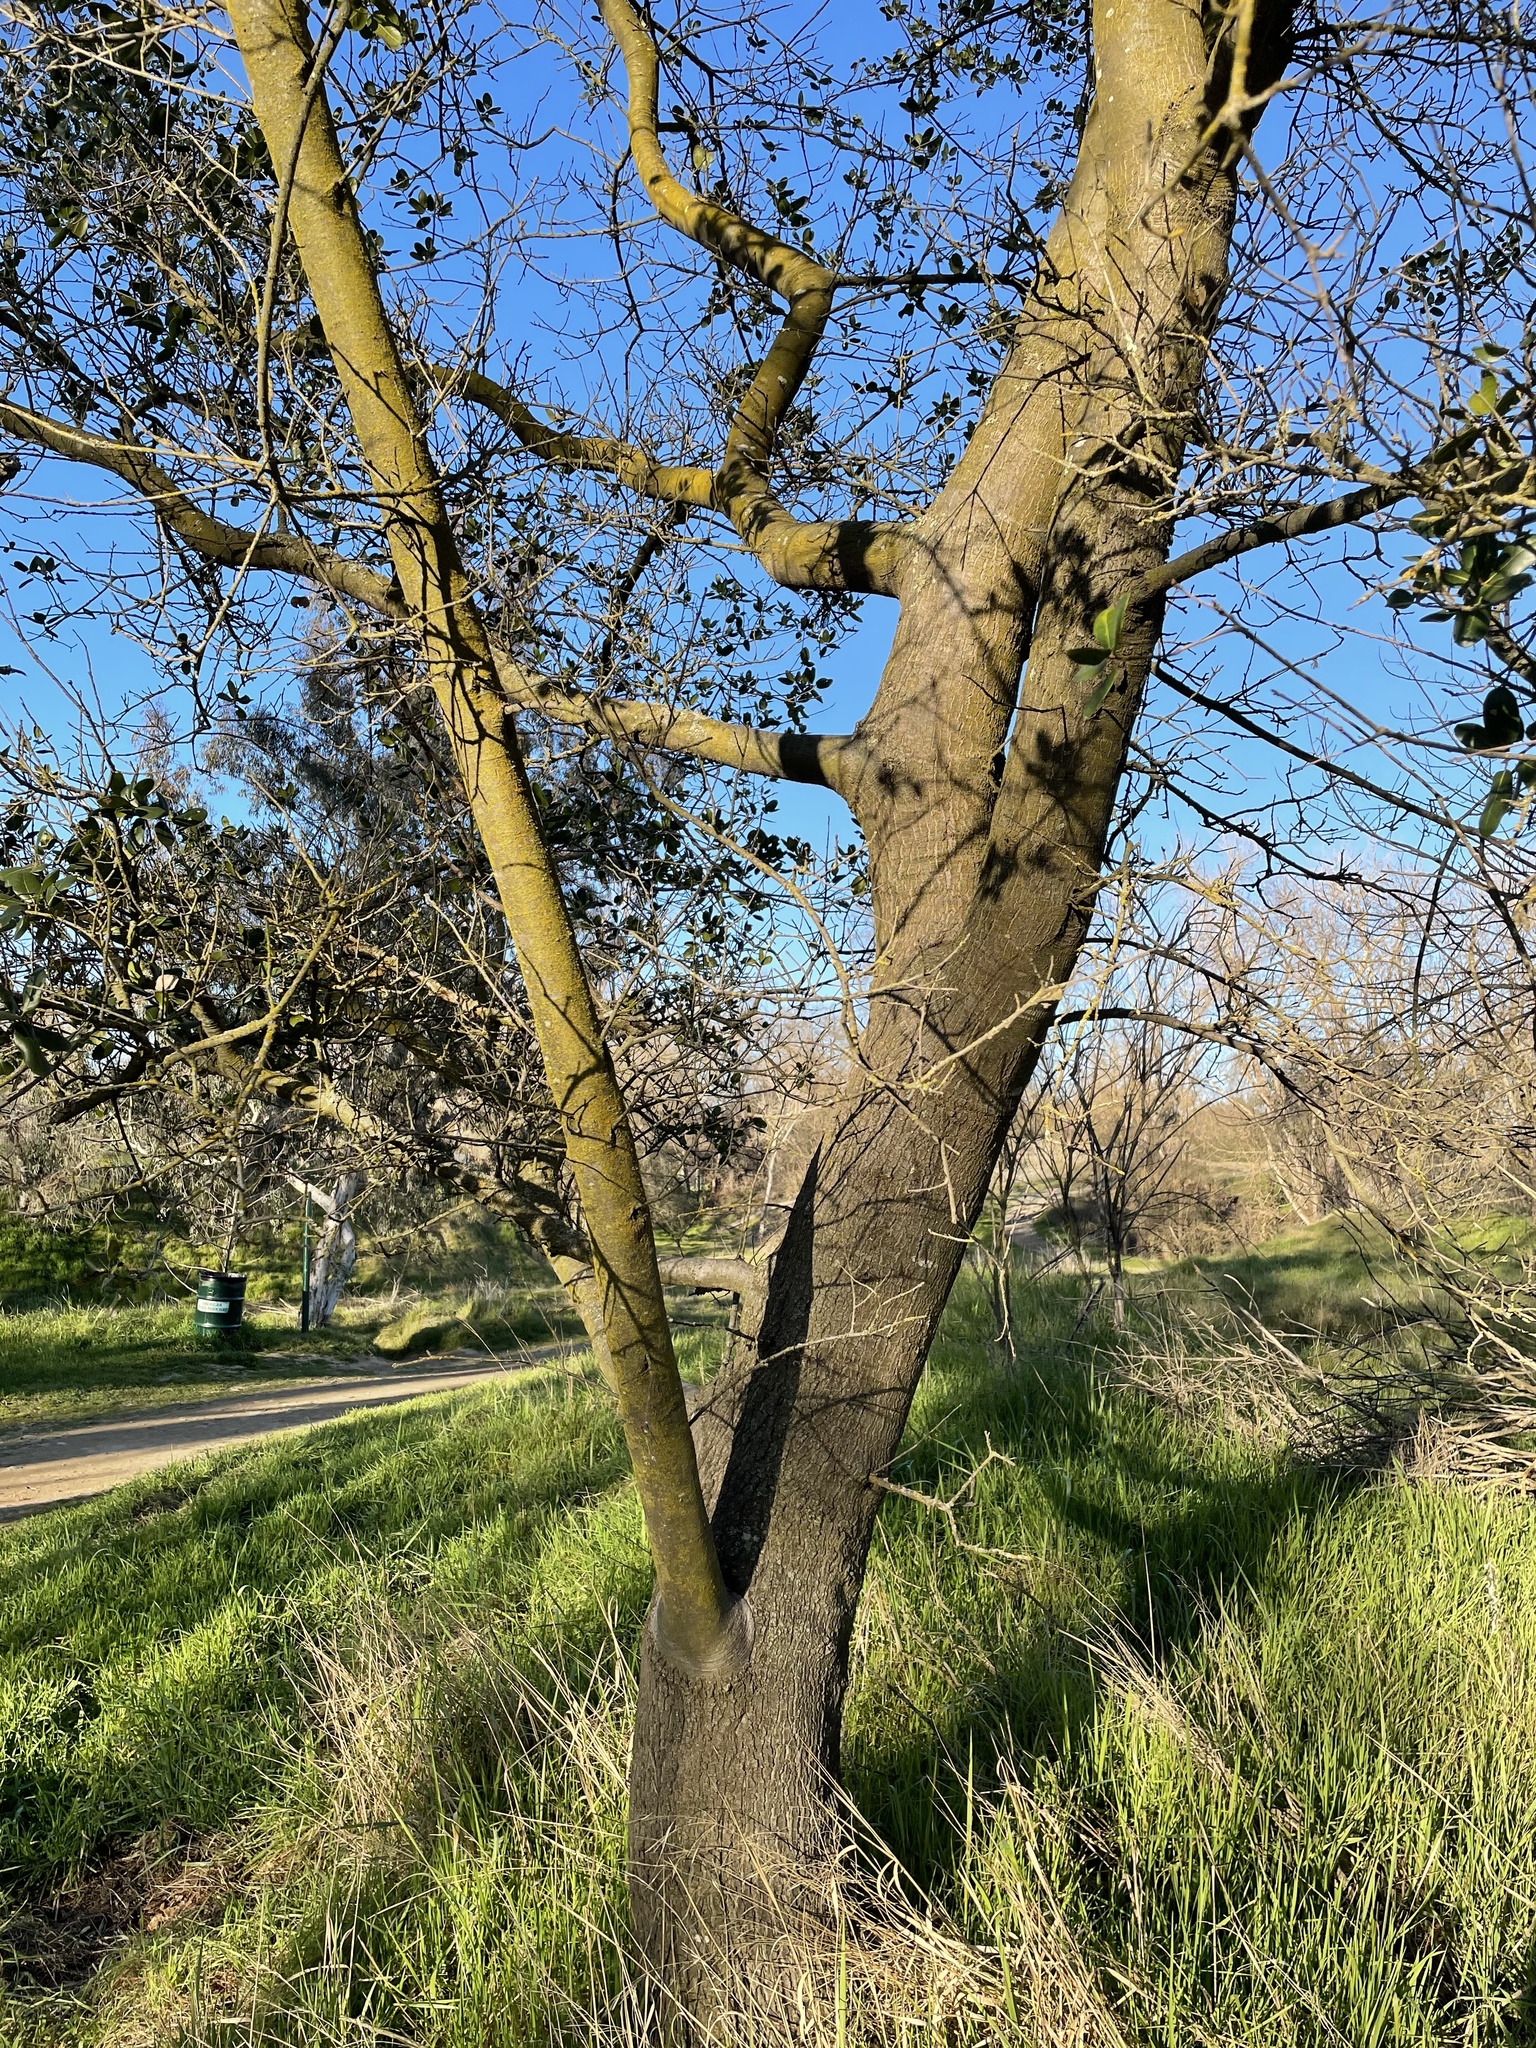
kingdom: Plantae
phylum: Tracheophyta
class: Magnoliopsida
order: Fagales
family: Fagaceae
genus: Quercus
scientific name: Quercus wislizeni
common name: Interior live oak
